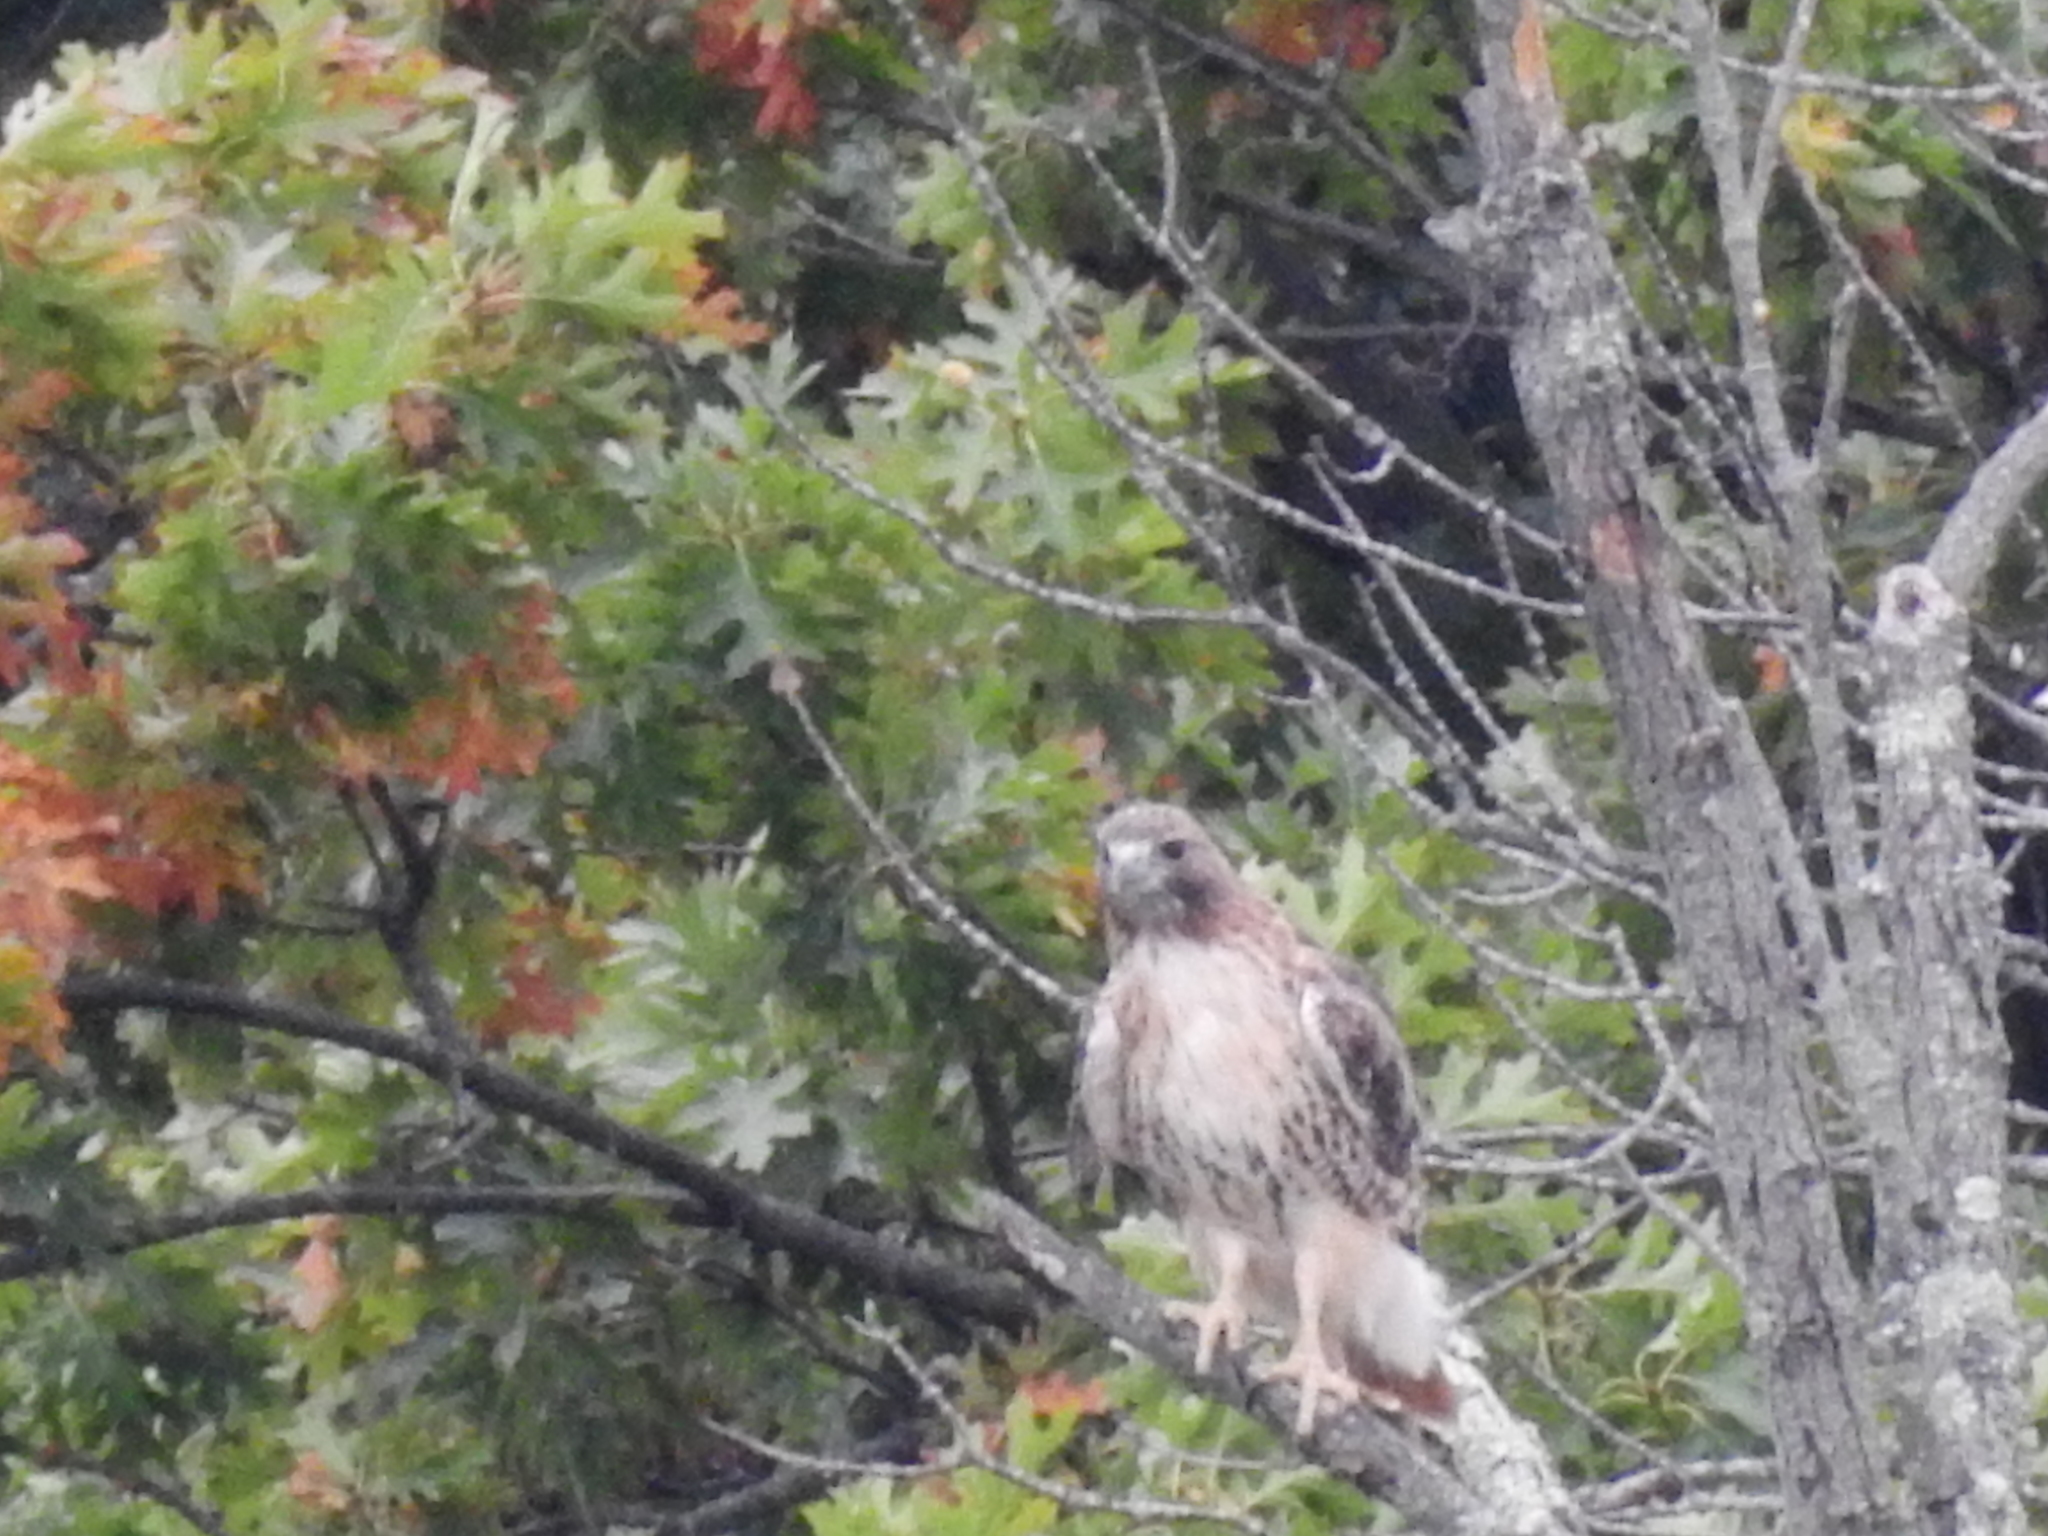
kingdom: Animalia
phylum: Chordata
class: Aves
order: Accipitriformes
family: Accipitridae
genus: Buteo
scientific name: Buteo jamaicensis
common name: Red-tailed hawk
